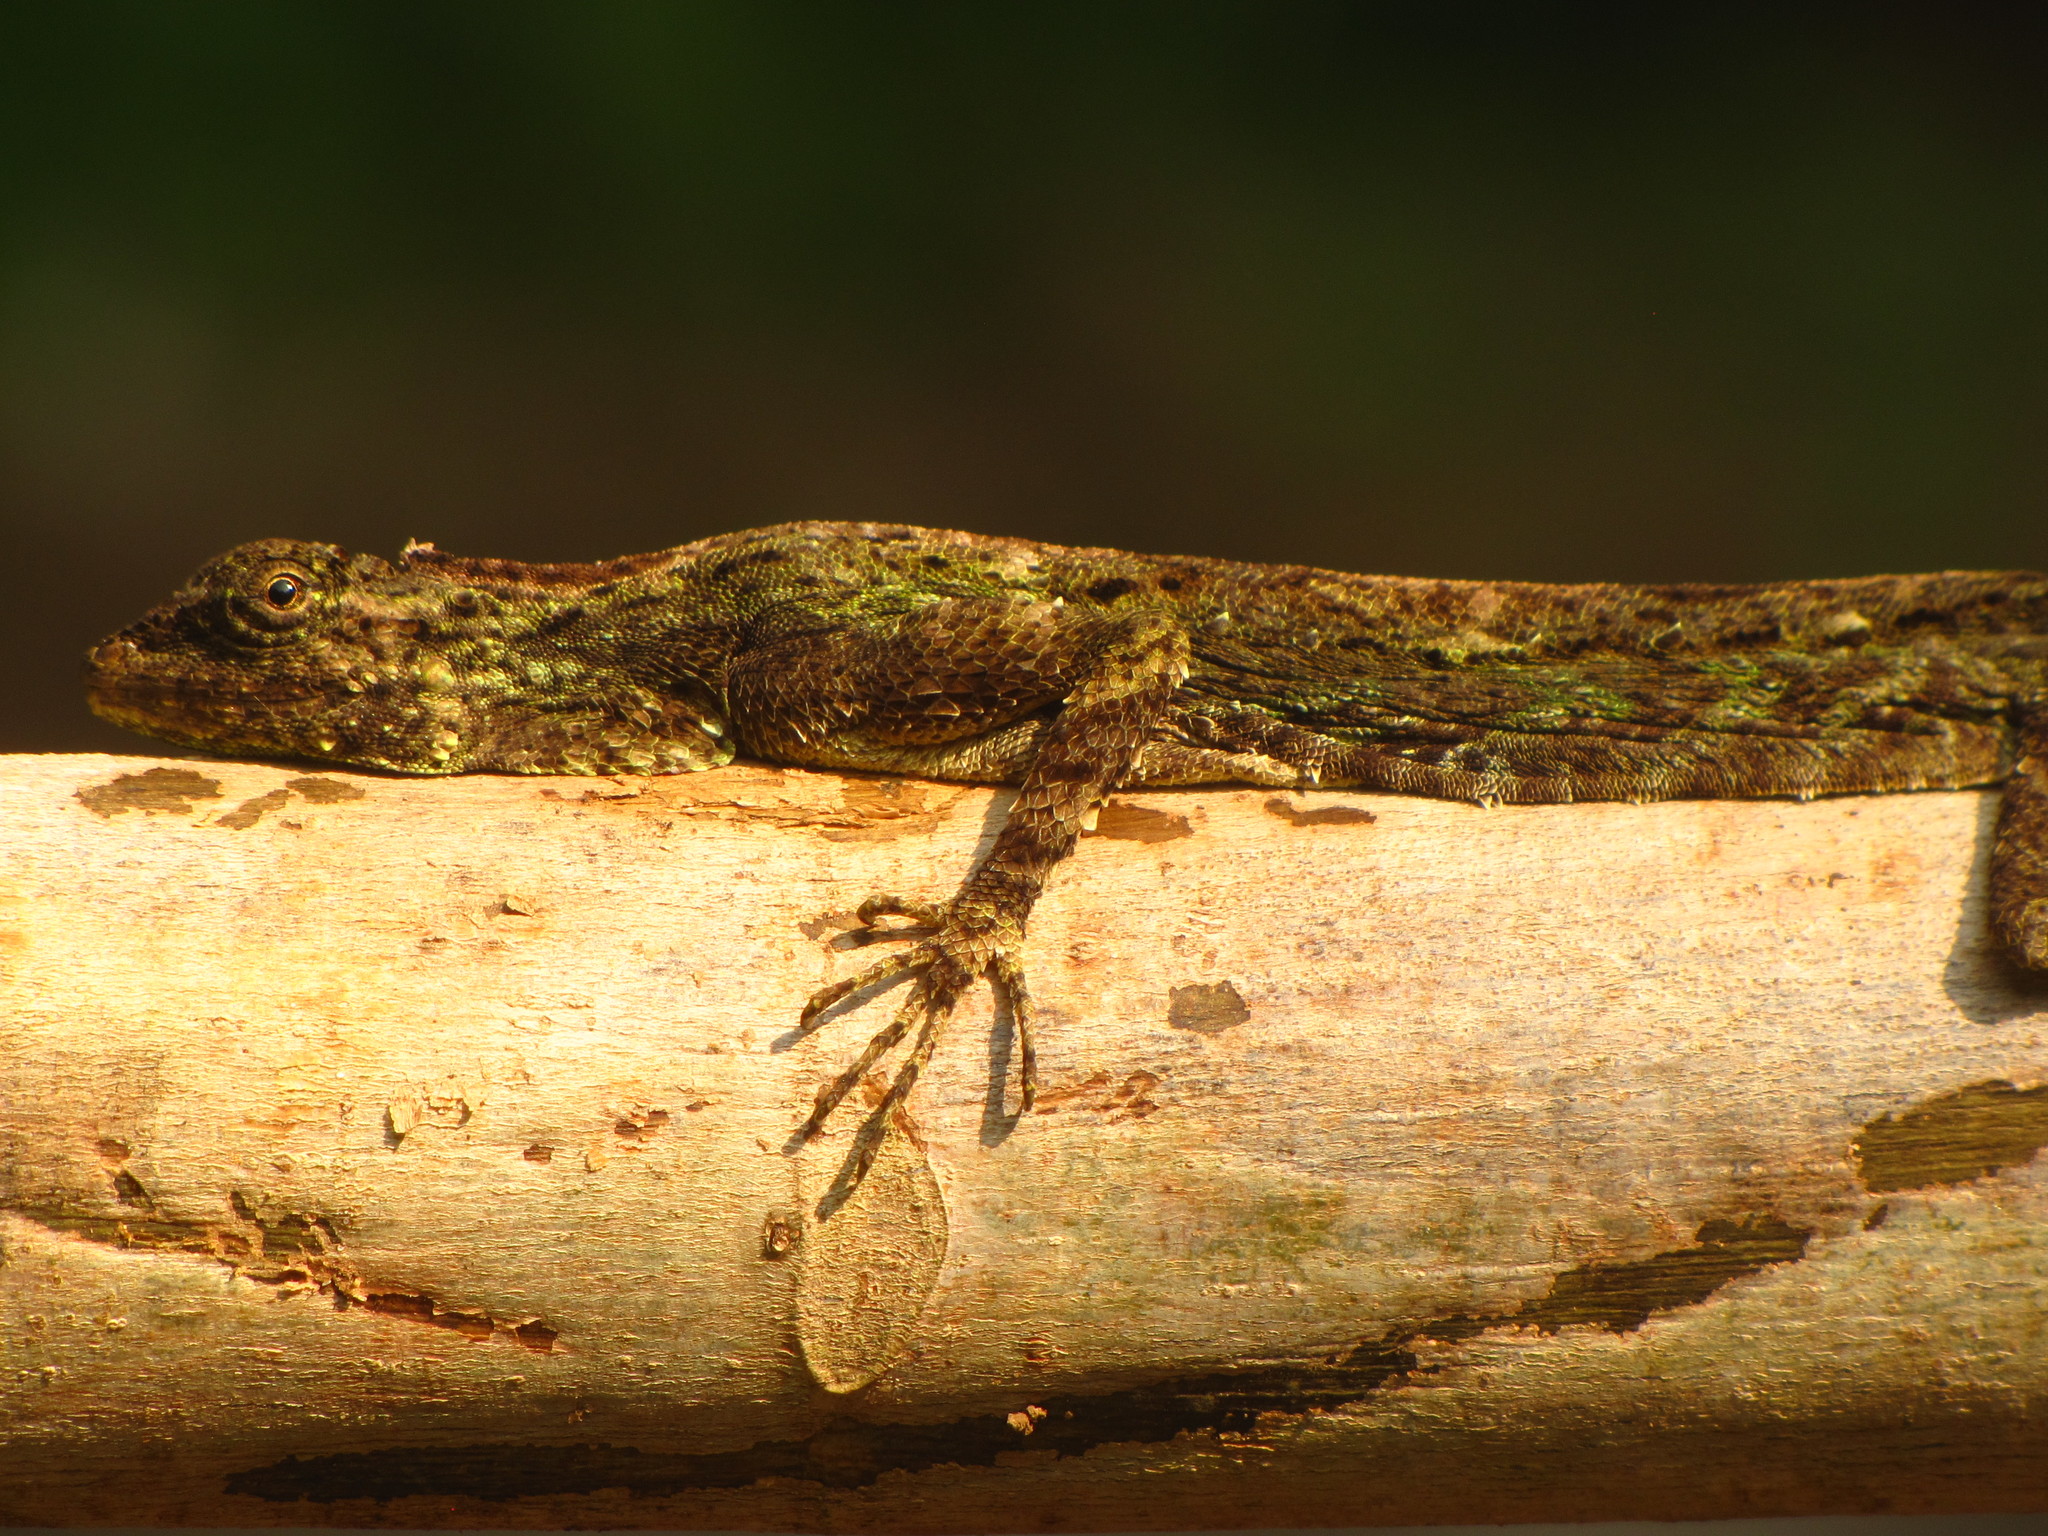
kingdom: Animalia
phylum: Chordata
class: Squamata
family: Agamidae
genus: Draco
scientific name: Draco norvillii
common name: Norvill's flying lizard
